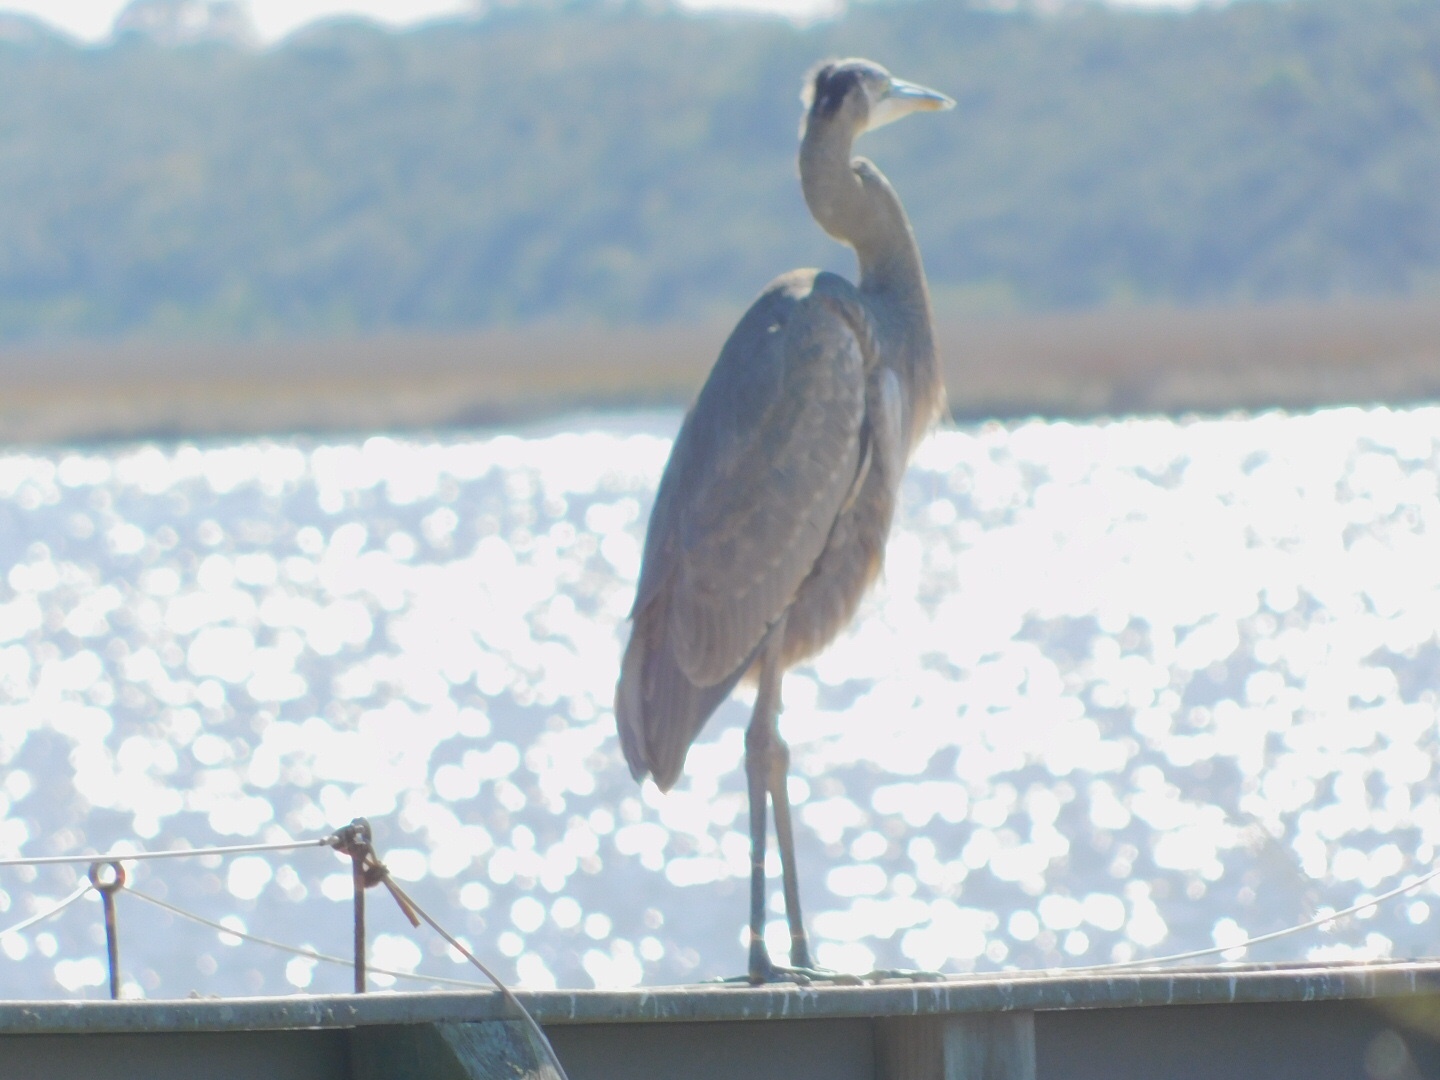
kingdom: Animalia
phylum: Chordata
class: Aves
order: Pelecaniformes
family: Ardeidae
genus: Ardea
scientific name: Ardea herodias
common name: Great blue heron
